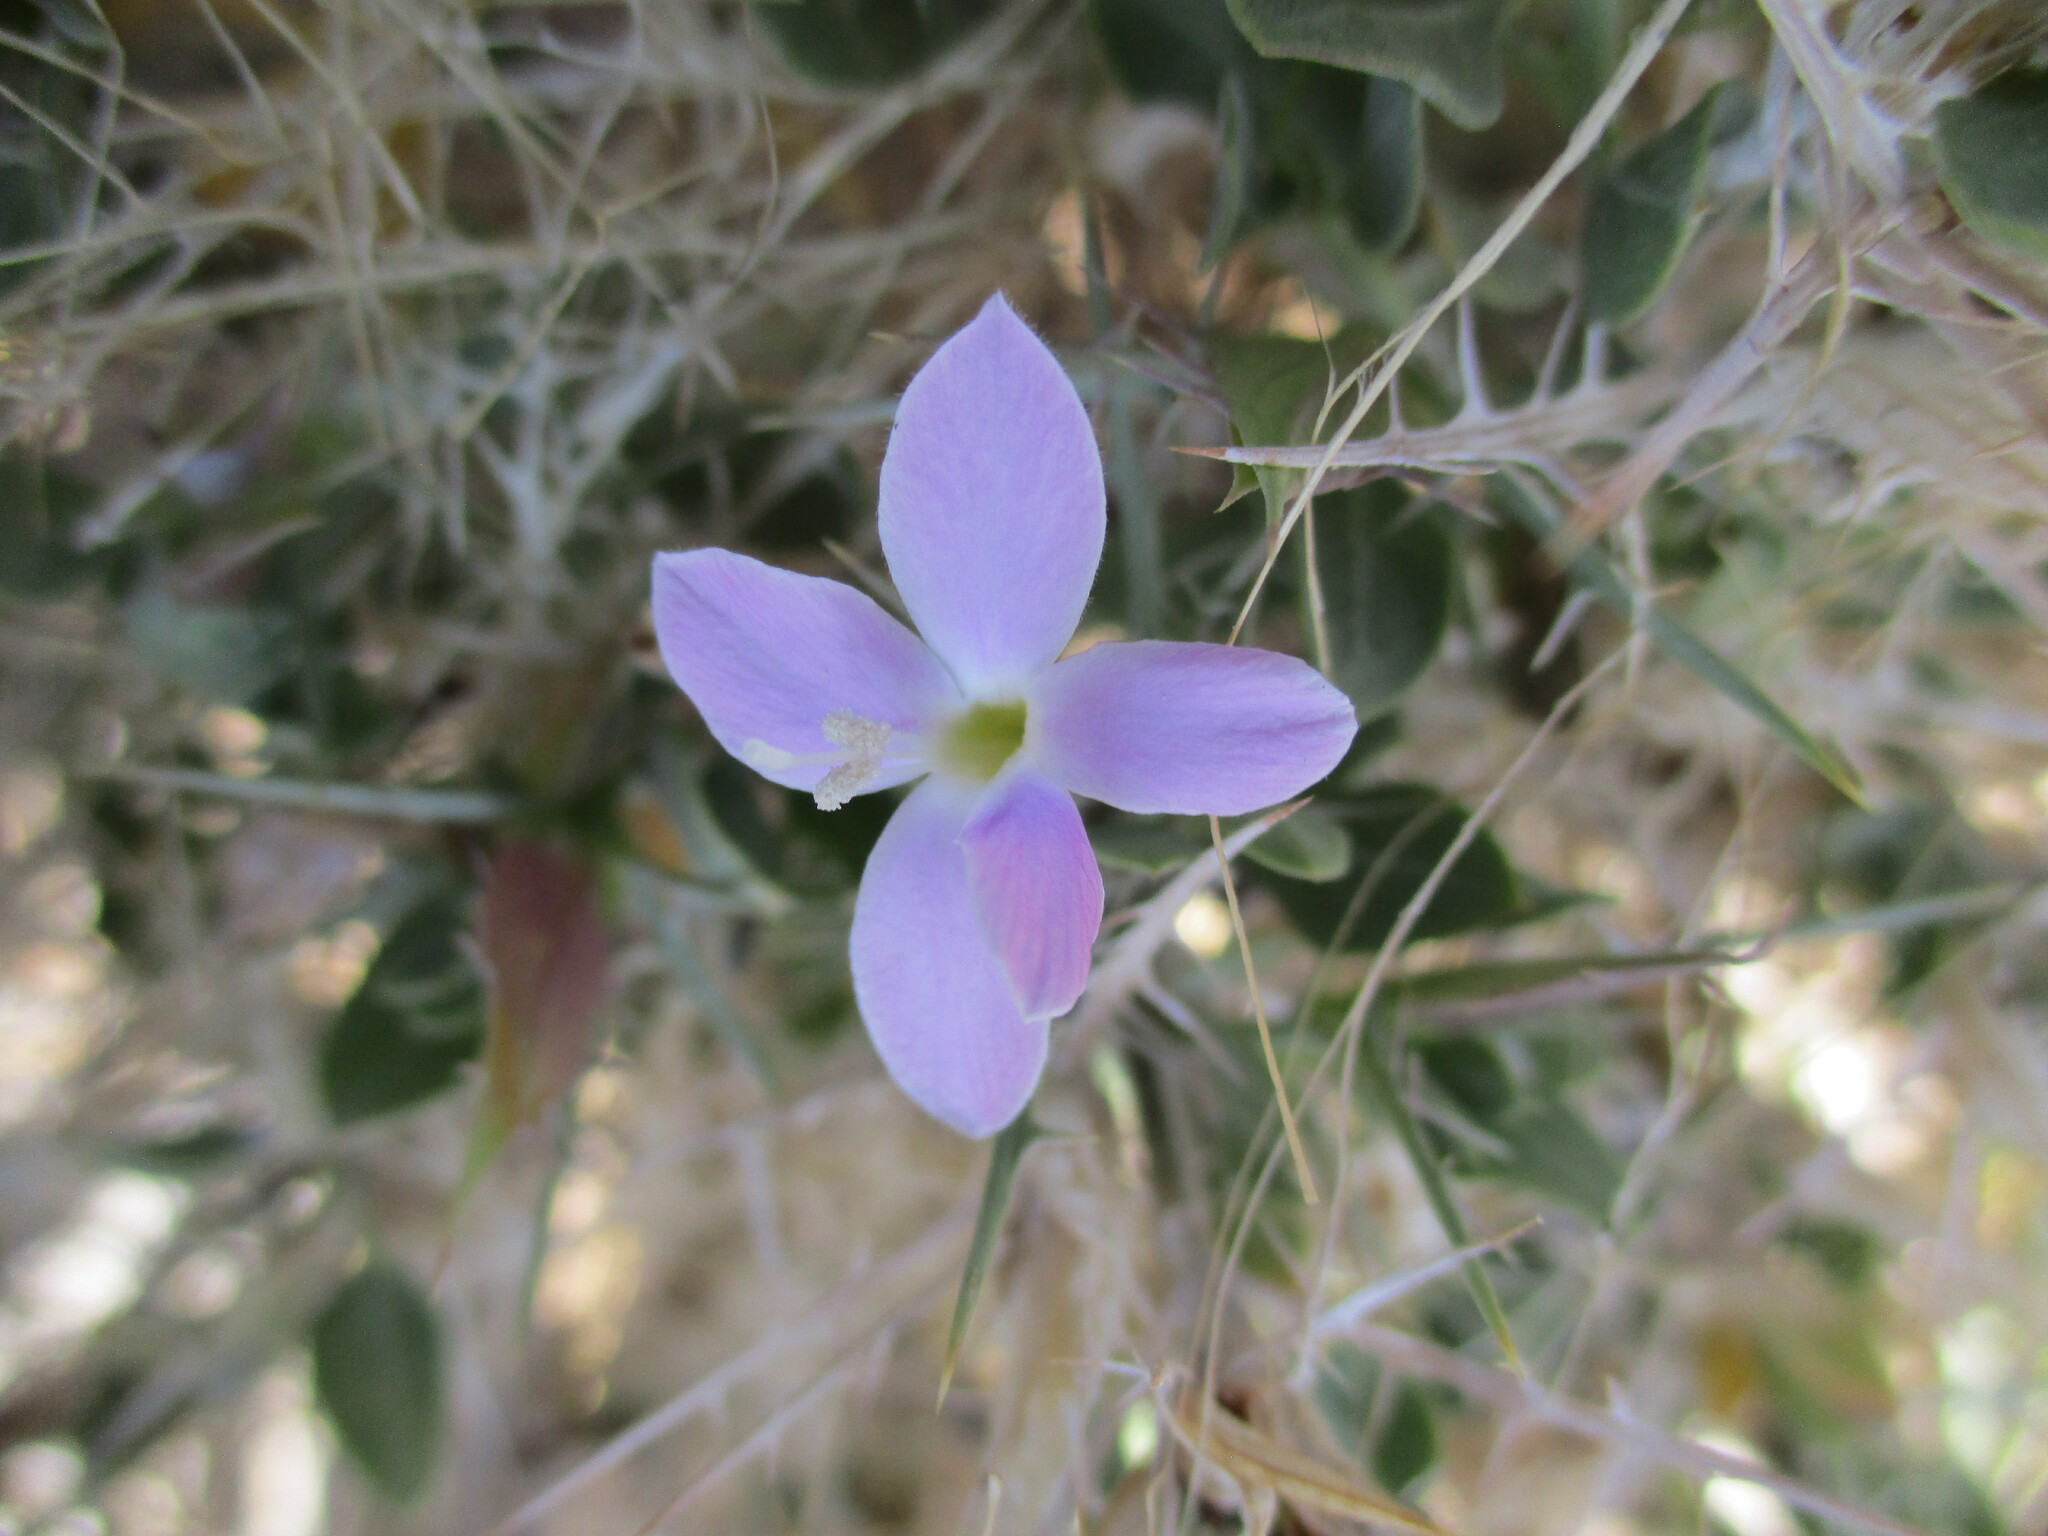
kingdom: Plantae
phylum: Tracheophyta
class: Magnoliopsida
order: Lamiales
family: Acanthaceae
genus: Barleria
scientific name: Barleria merxmuelleri
